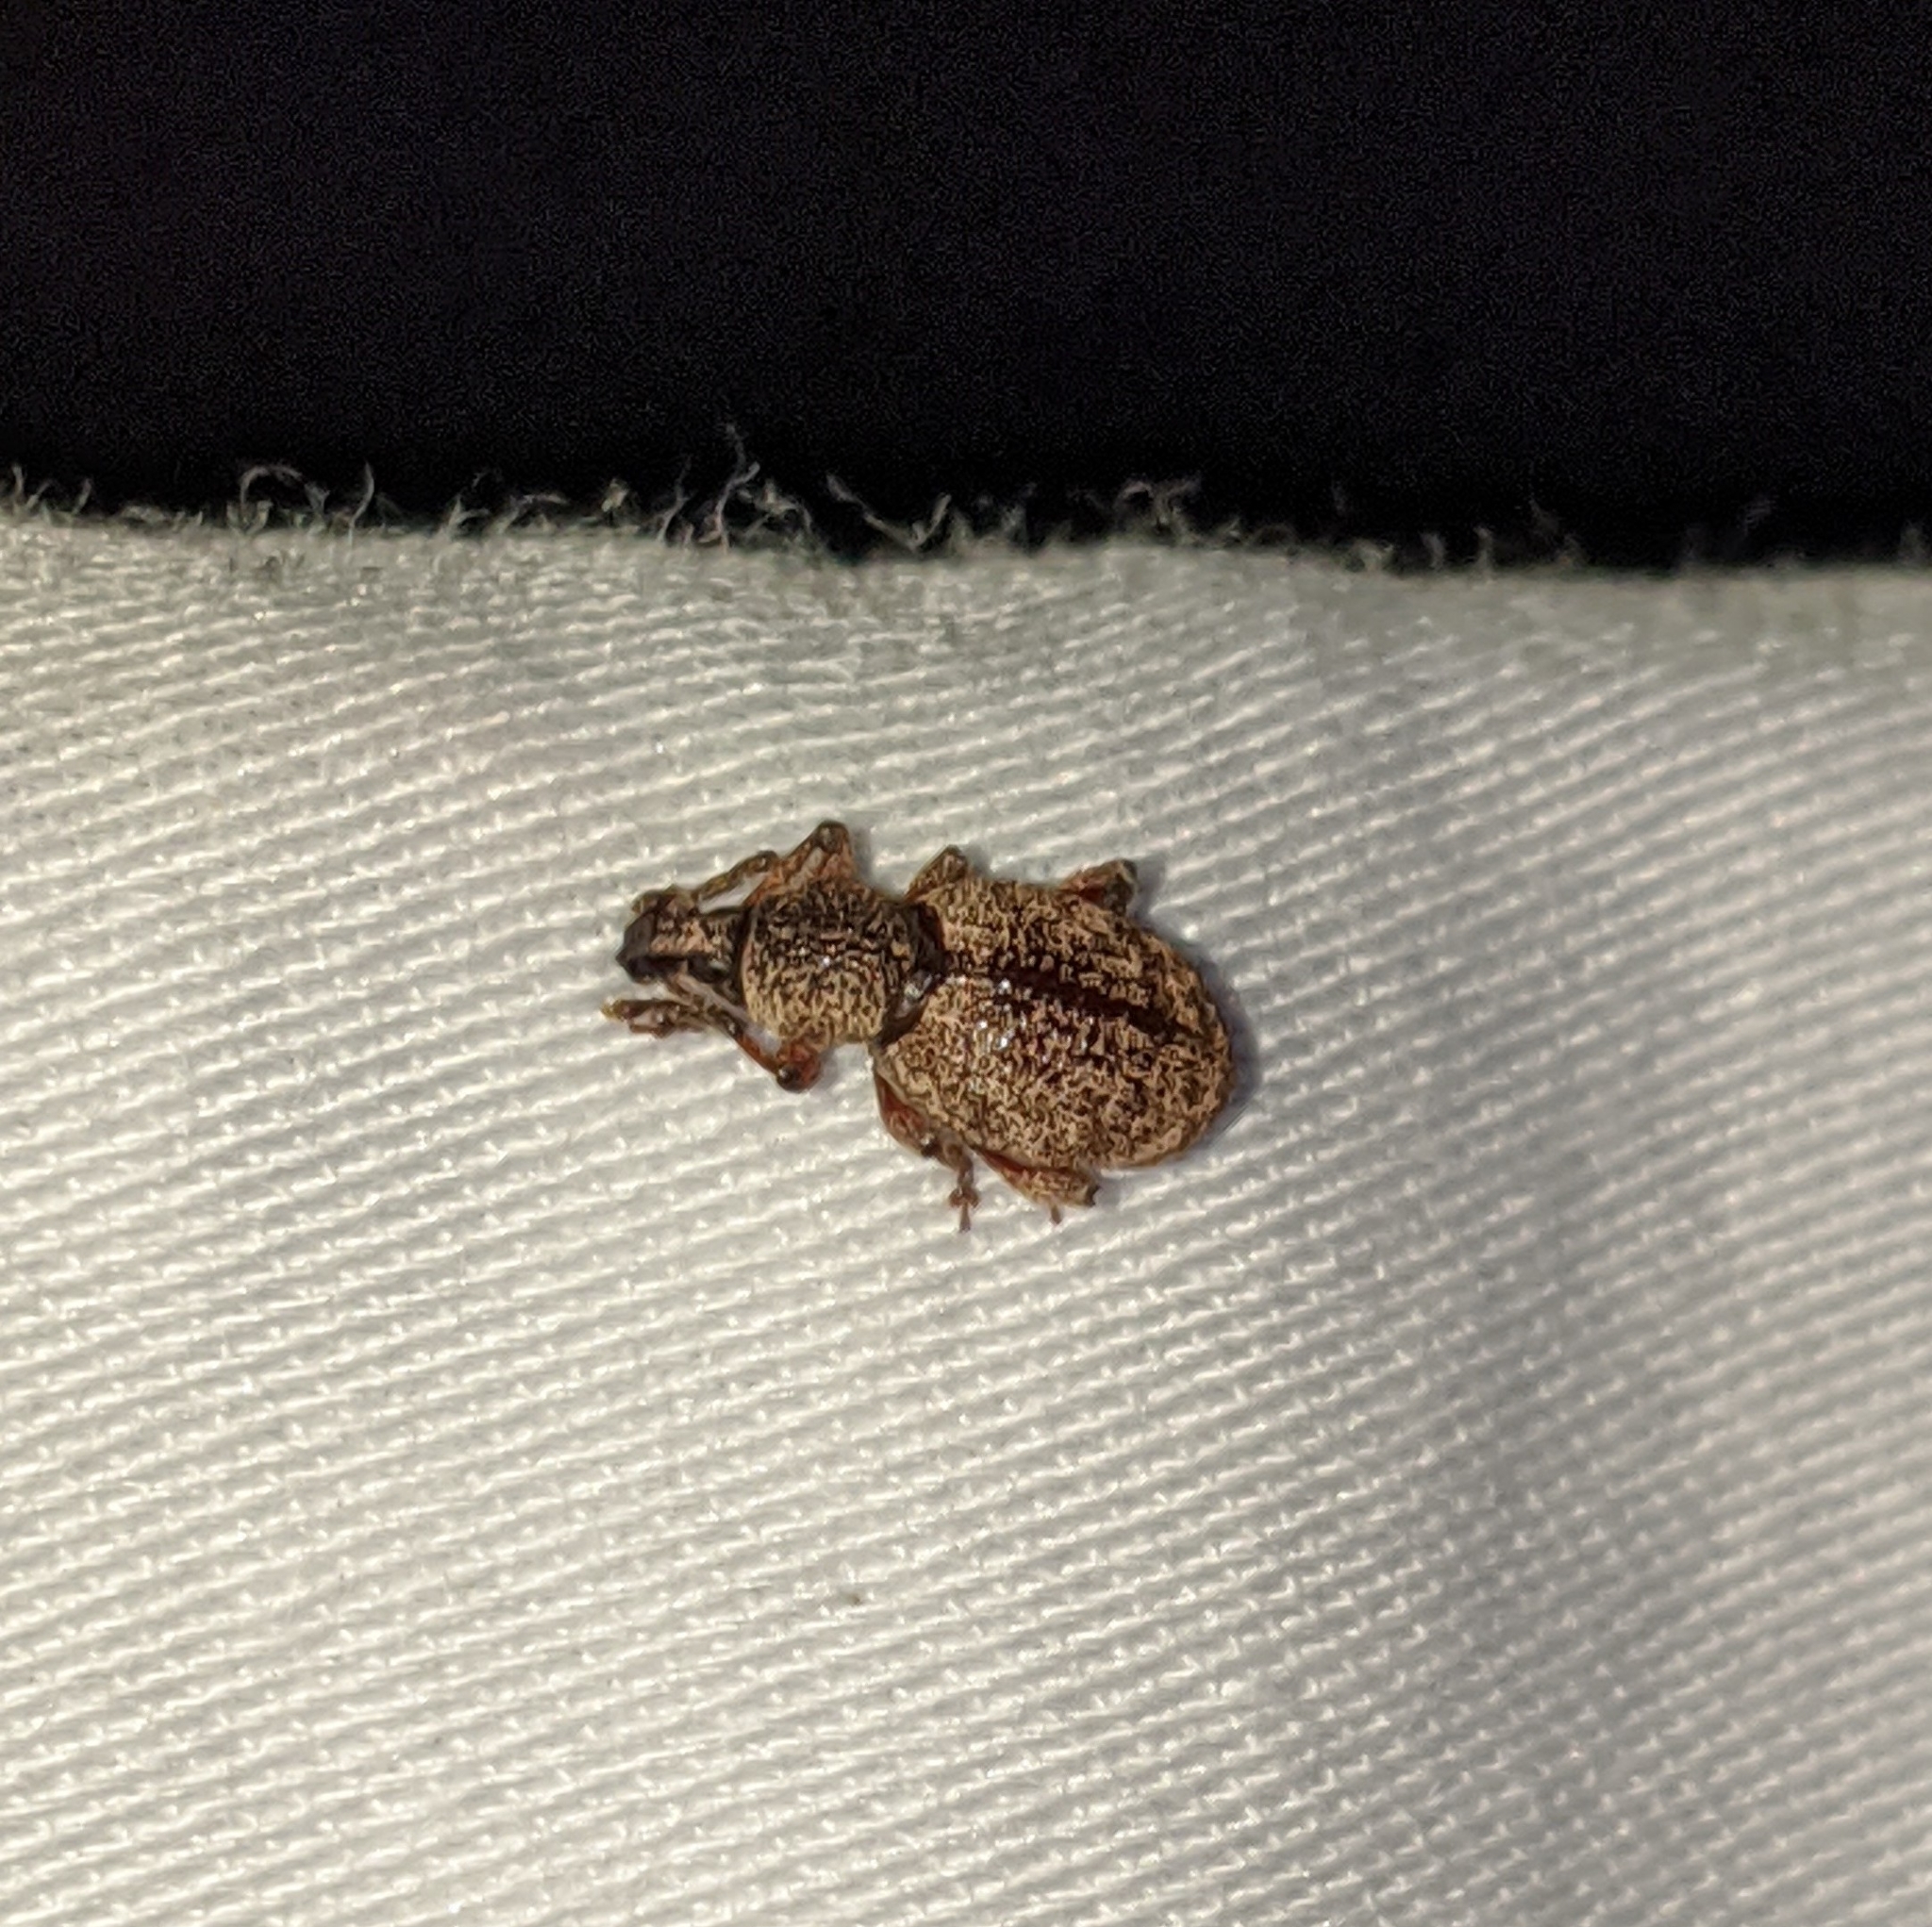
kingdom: Animalia
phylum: Arthropoda
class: Insecta
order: Coleoptera
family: Curculionidae
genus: Otiorhynchus
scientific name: Otiorhynchus singularis
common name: Clay-coloured weevil
